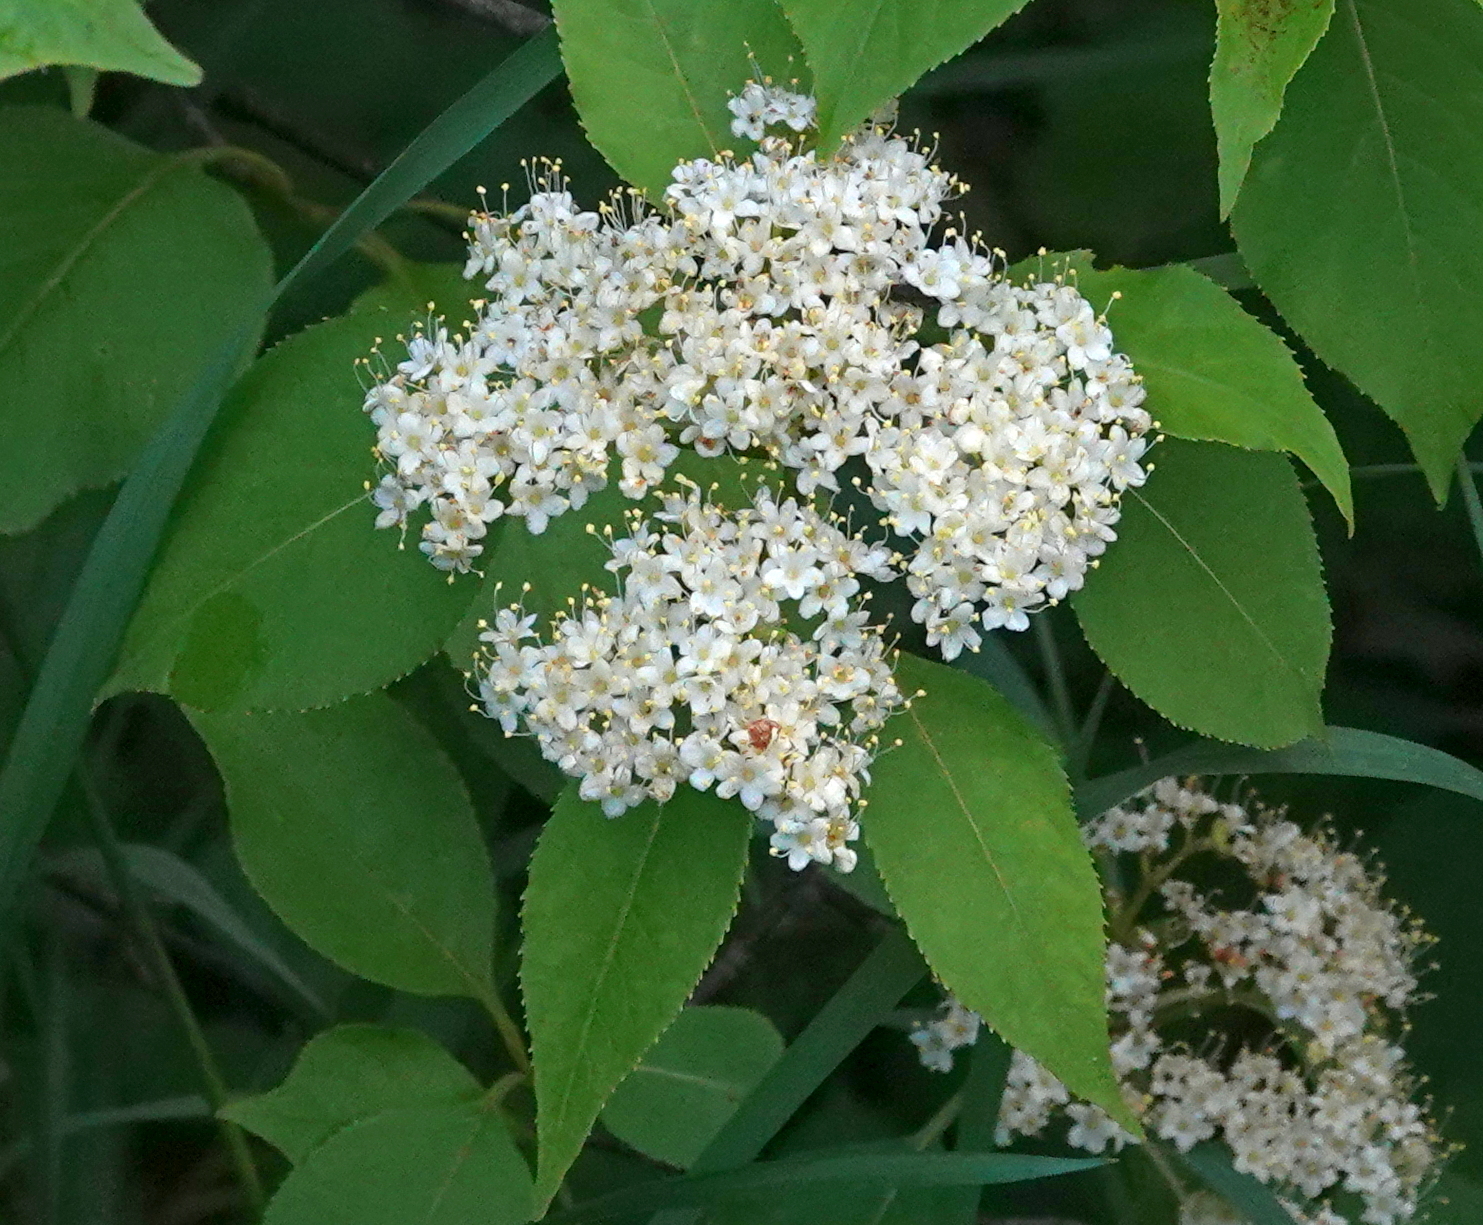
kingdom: Plantae
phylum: Tracheophyta
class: Magnoliopsida
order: Dipsacales
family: Viburnaceae
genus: Viburnum
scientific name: Viburnum lentago
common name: Black haw
